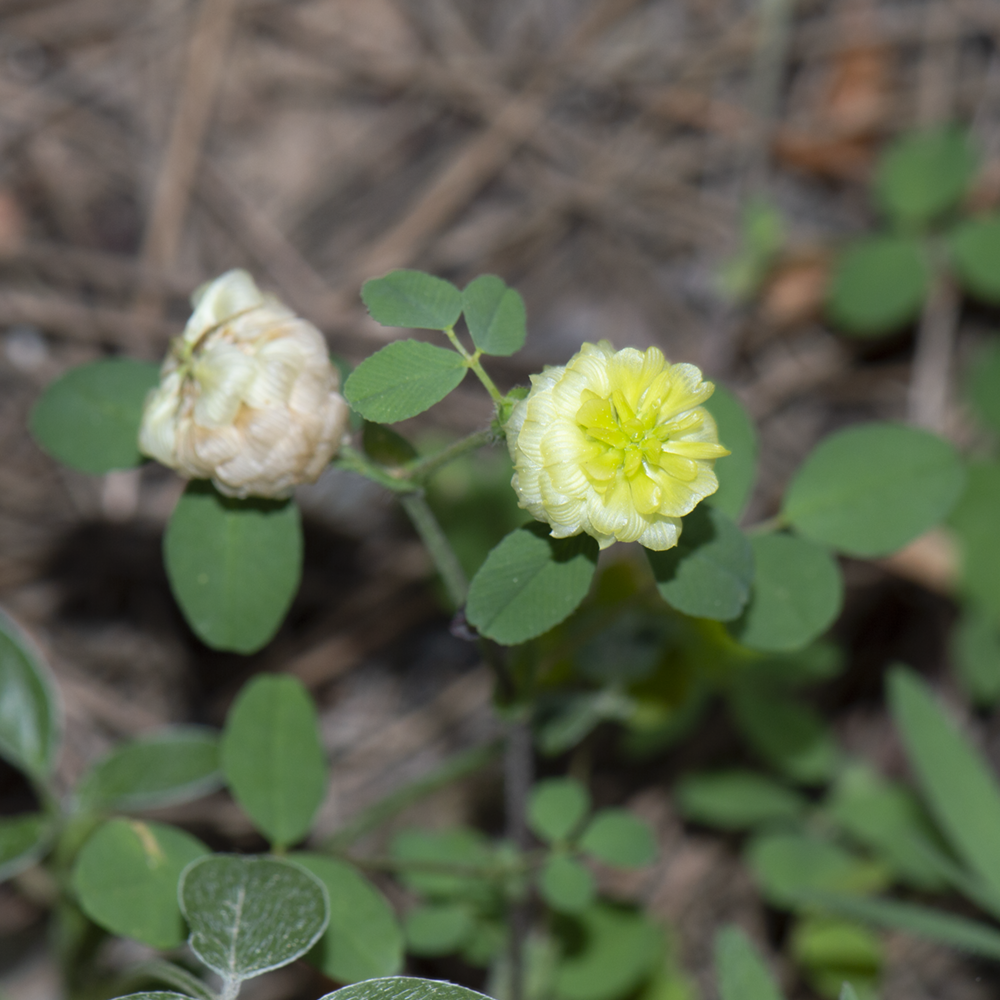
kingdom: Plantae
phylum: Tracheophyta
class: Magnoliopsida
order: Fabales
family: Fabaceae
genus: Trifolium
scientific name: Trifolium campestre
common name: Field clover
